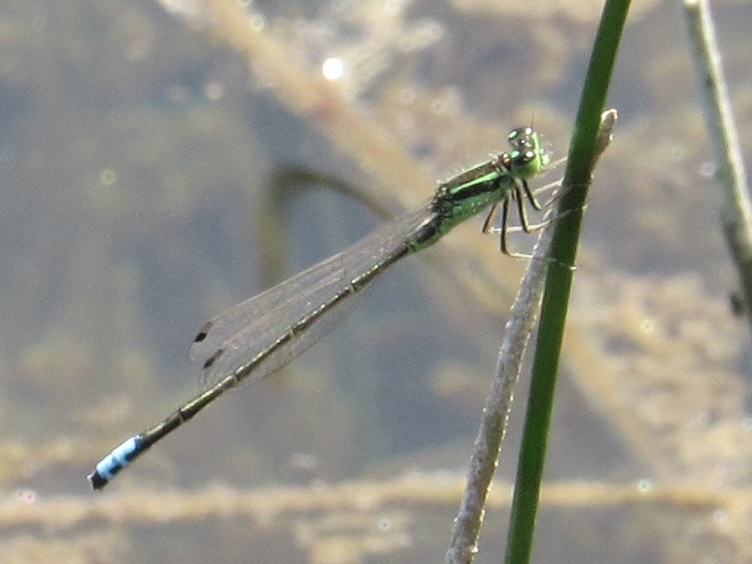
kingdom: Animalia
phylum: Arthropoda
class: Insecta
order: Odonata
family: Coenagrionidae
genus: Ischnura
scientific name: Ischnura verticalis
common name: Eastern forktail
